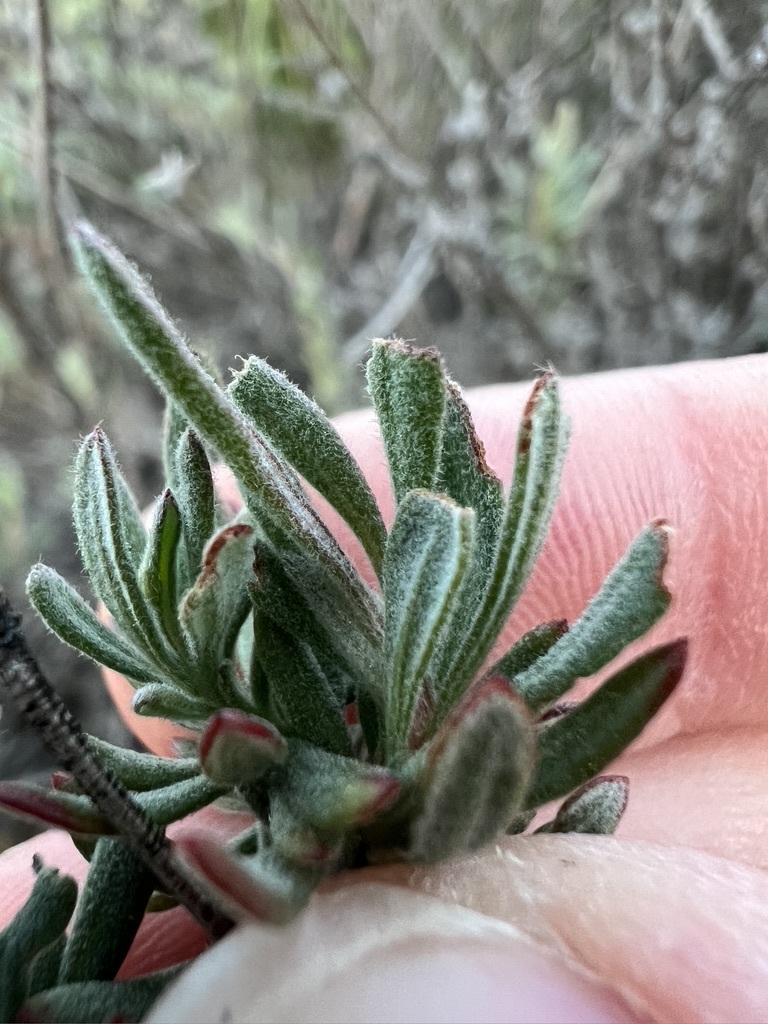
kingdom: Plantae
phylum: Tracheophyta
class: Magnoliopsida
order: Caryophyllales
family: Polygonaceae
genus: Eriogonum
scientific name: Eriogonum fasciculatum
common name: California wild buckwheat
